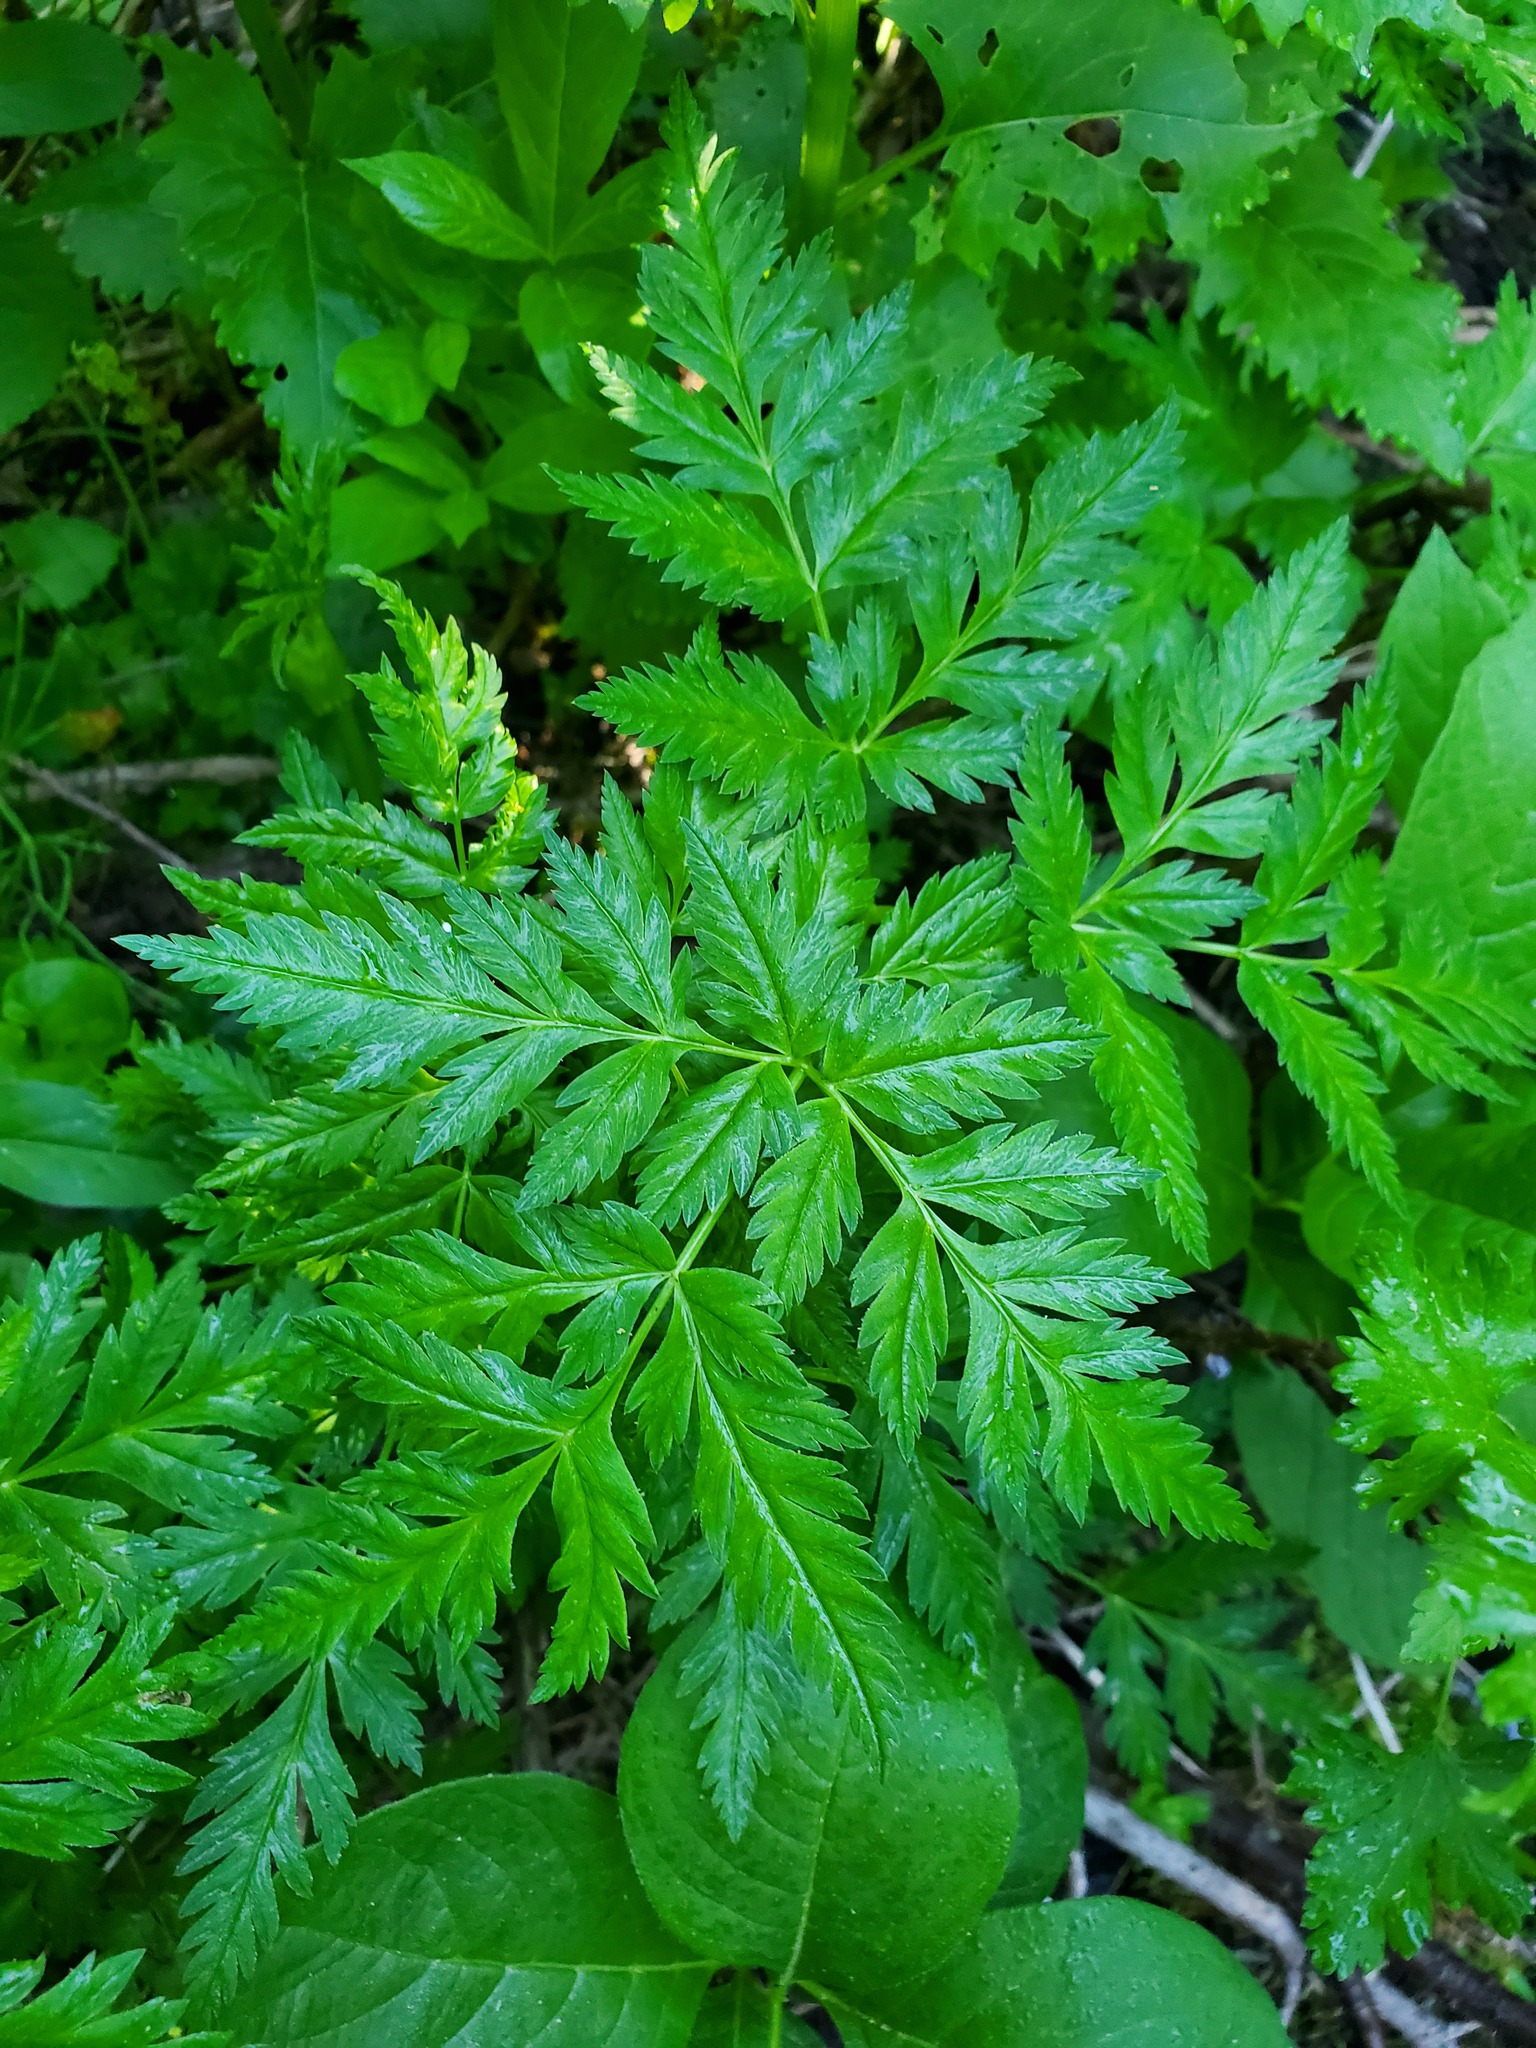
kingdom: Plantae
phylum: Tracheophyta
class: Magnoliopsida
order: Apiales
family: Apiaceae
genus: Ligusticum
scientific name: Ligusticum canbyi
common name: Canby’s licorice-root
